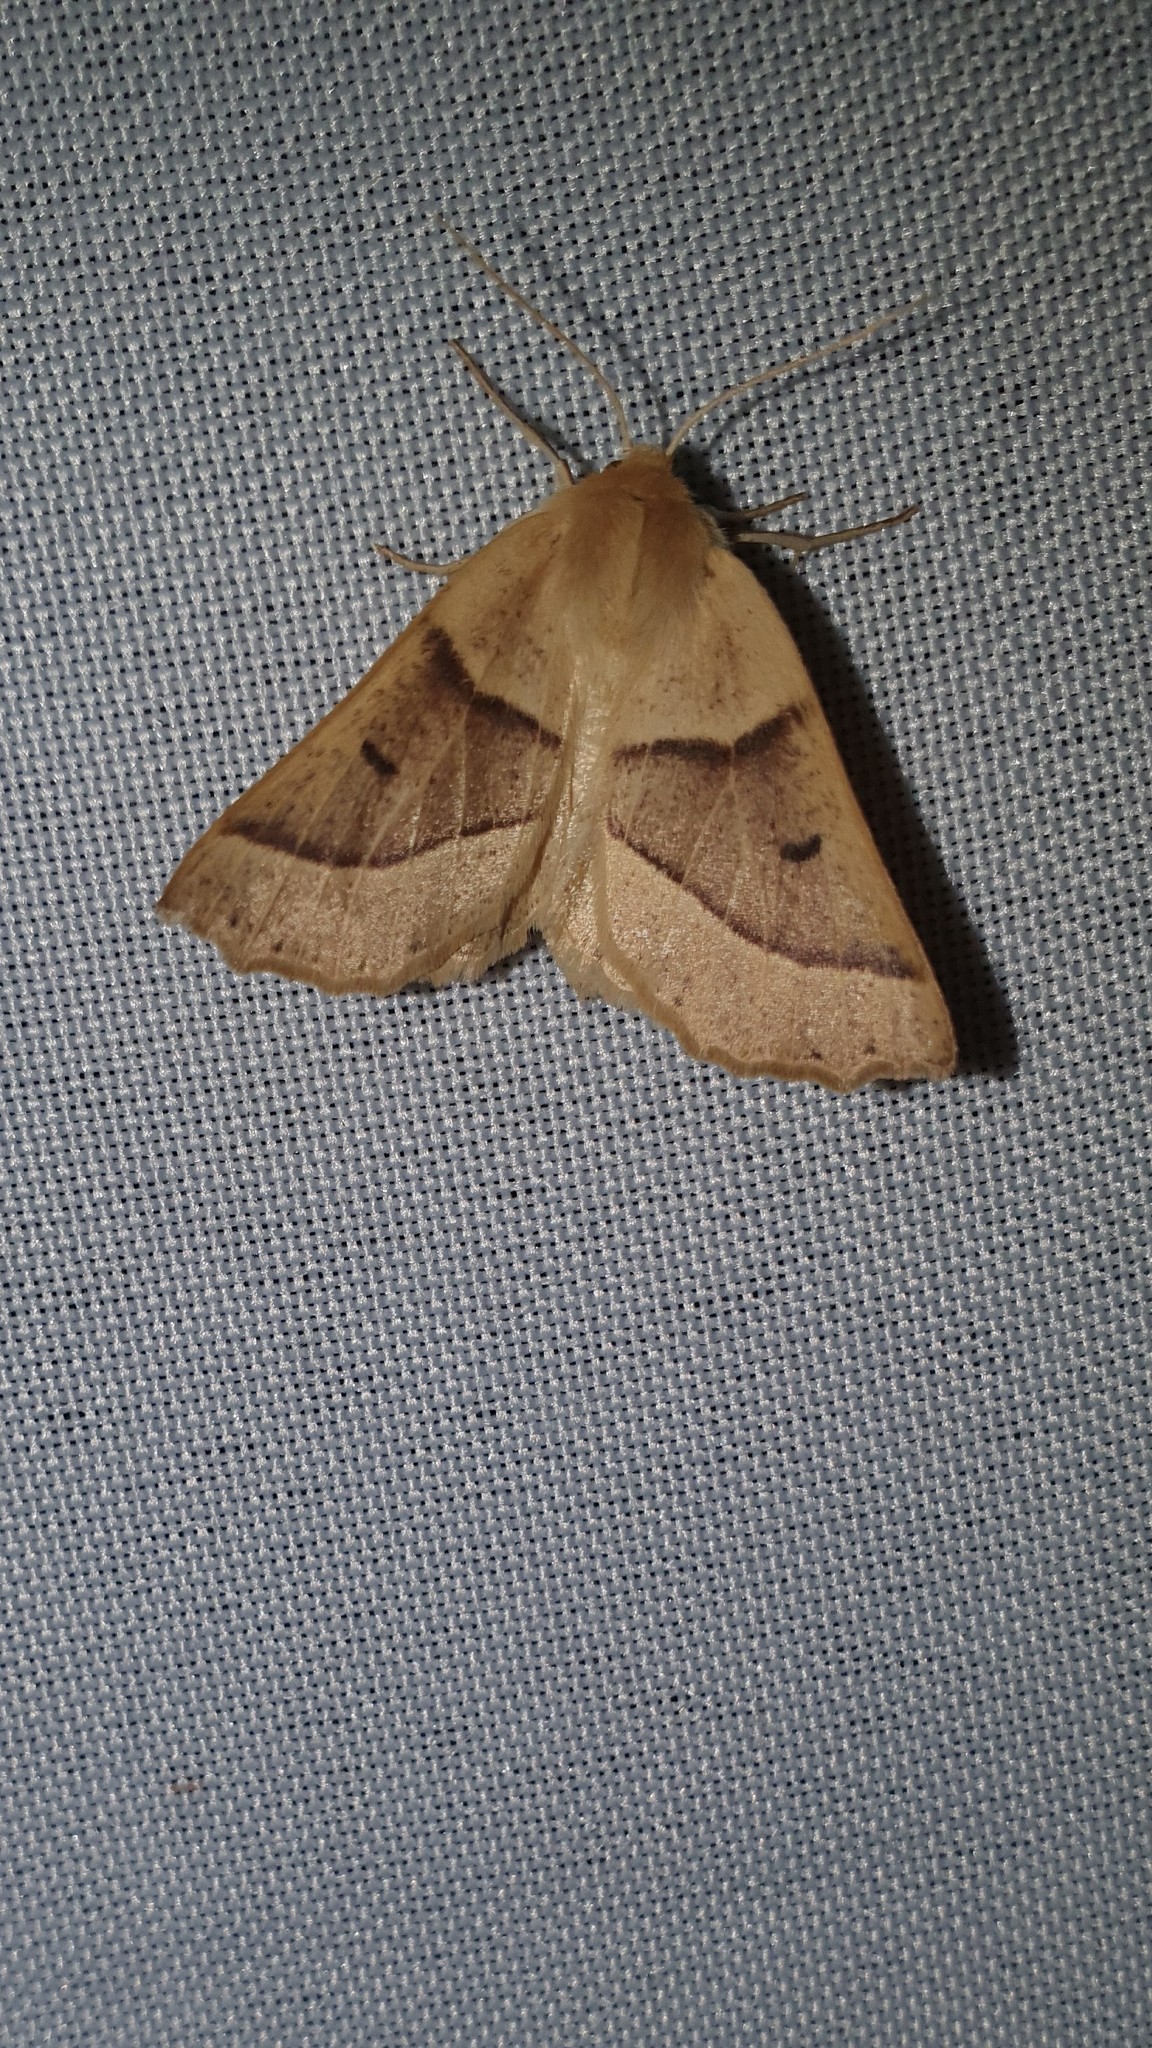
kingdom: Animalia
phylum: Arthropoda
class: Insecta
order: Lepidoptera
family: Geometridae
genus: Crocallis
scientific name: Crocallis elinguaria
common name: Scalloped oak
